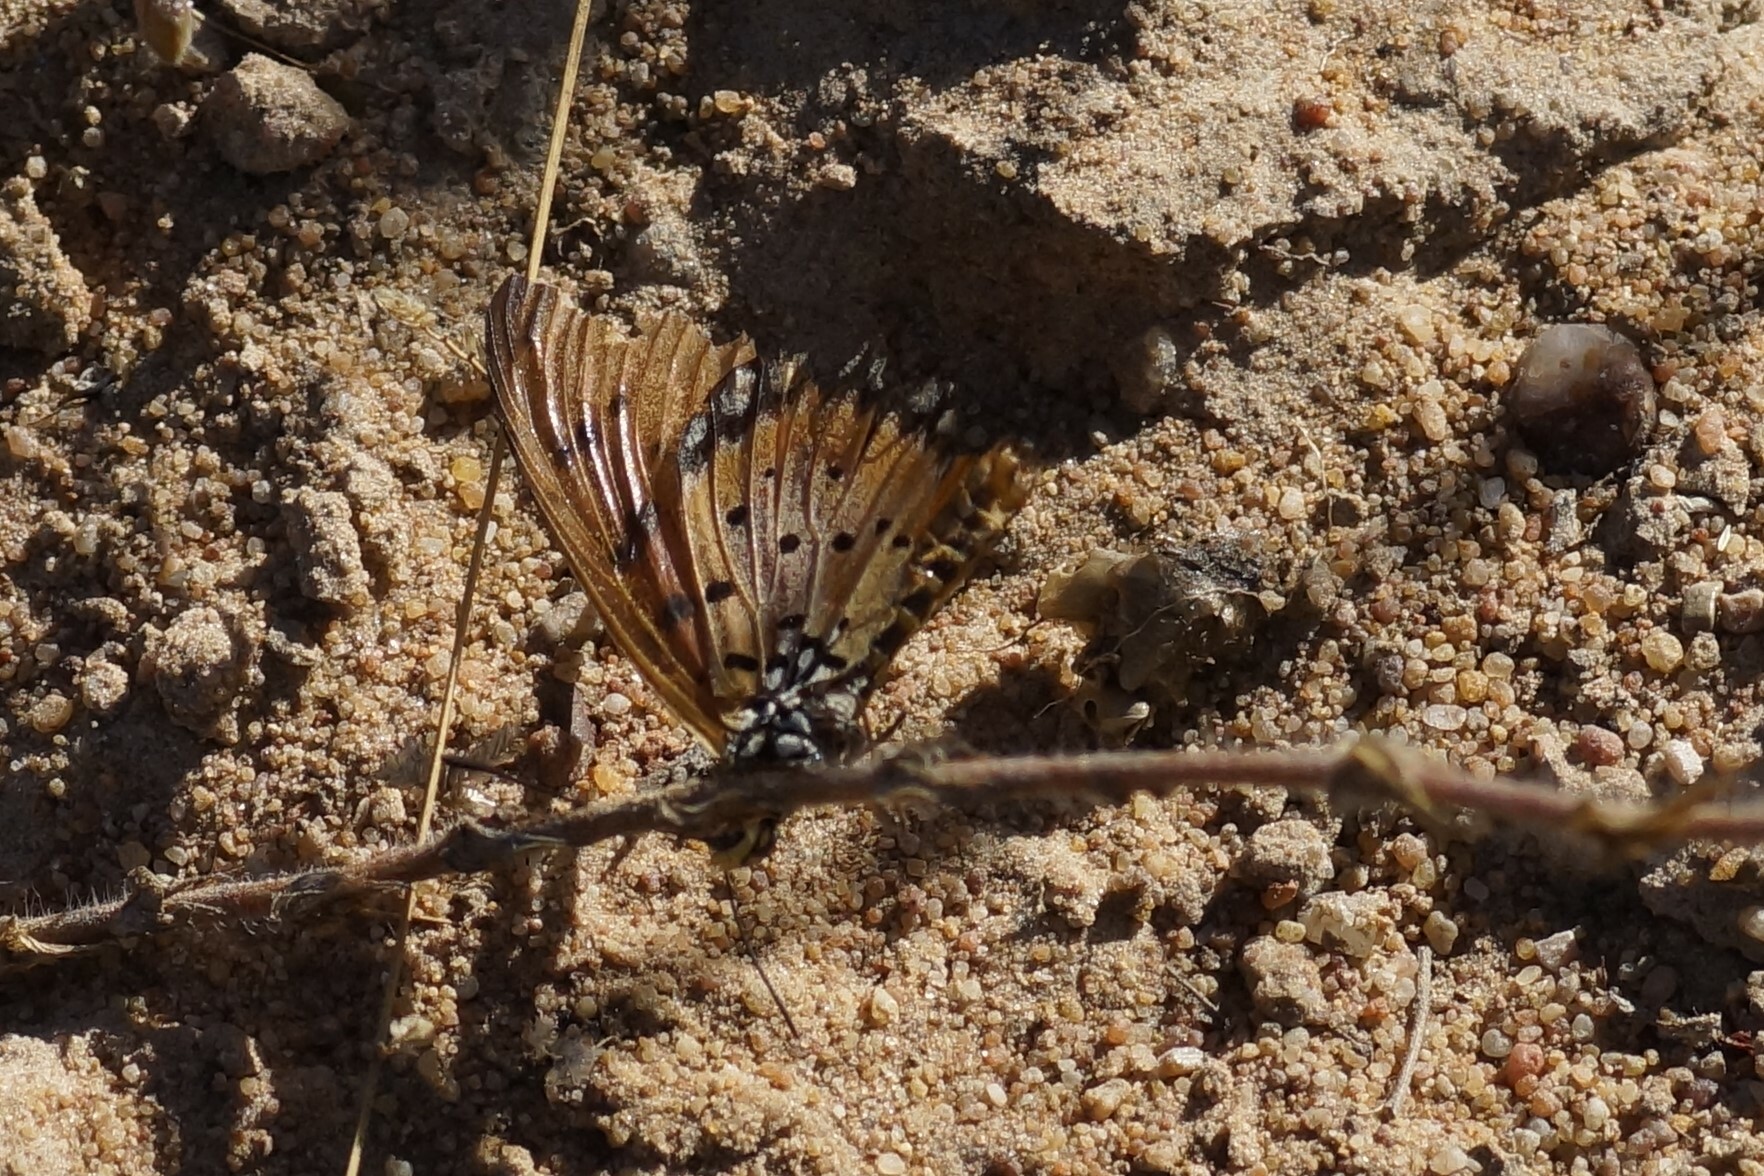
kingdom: Animalia
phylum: Arthropoda
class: Insecta
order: Lepidoptera
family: Nymphalidae
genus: Acraea
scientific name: Acraea terpsicore
